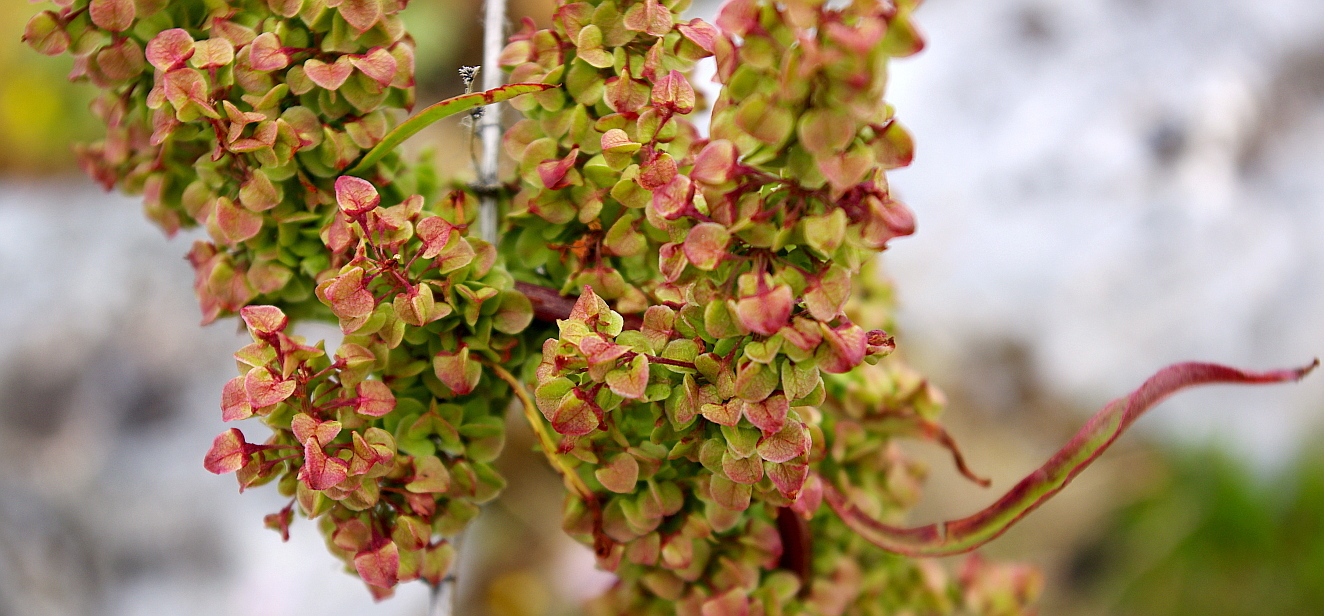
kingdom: Plantae
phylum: Tracheophyta
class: Magnoliopsida
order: Caryophyllales
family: Polygonaceae
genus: Rumex
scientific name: Rumex pseudonatronatus
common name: Field dock
